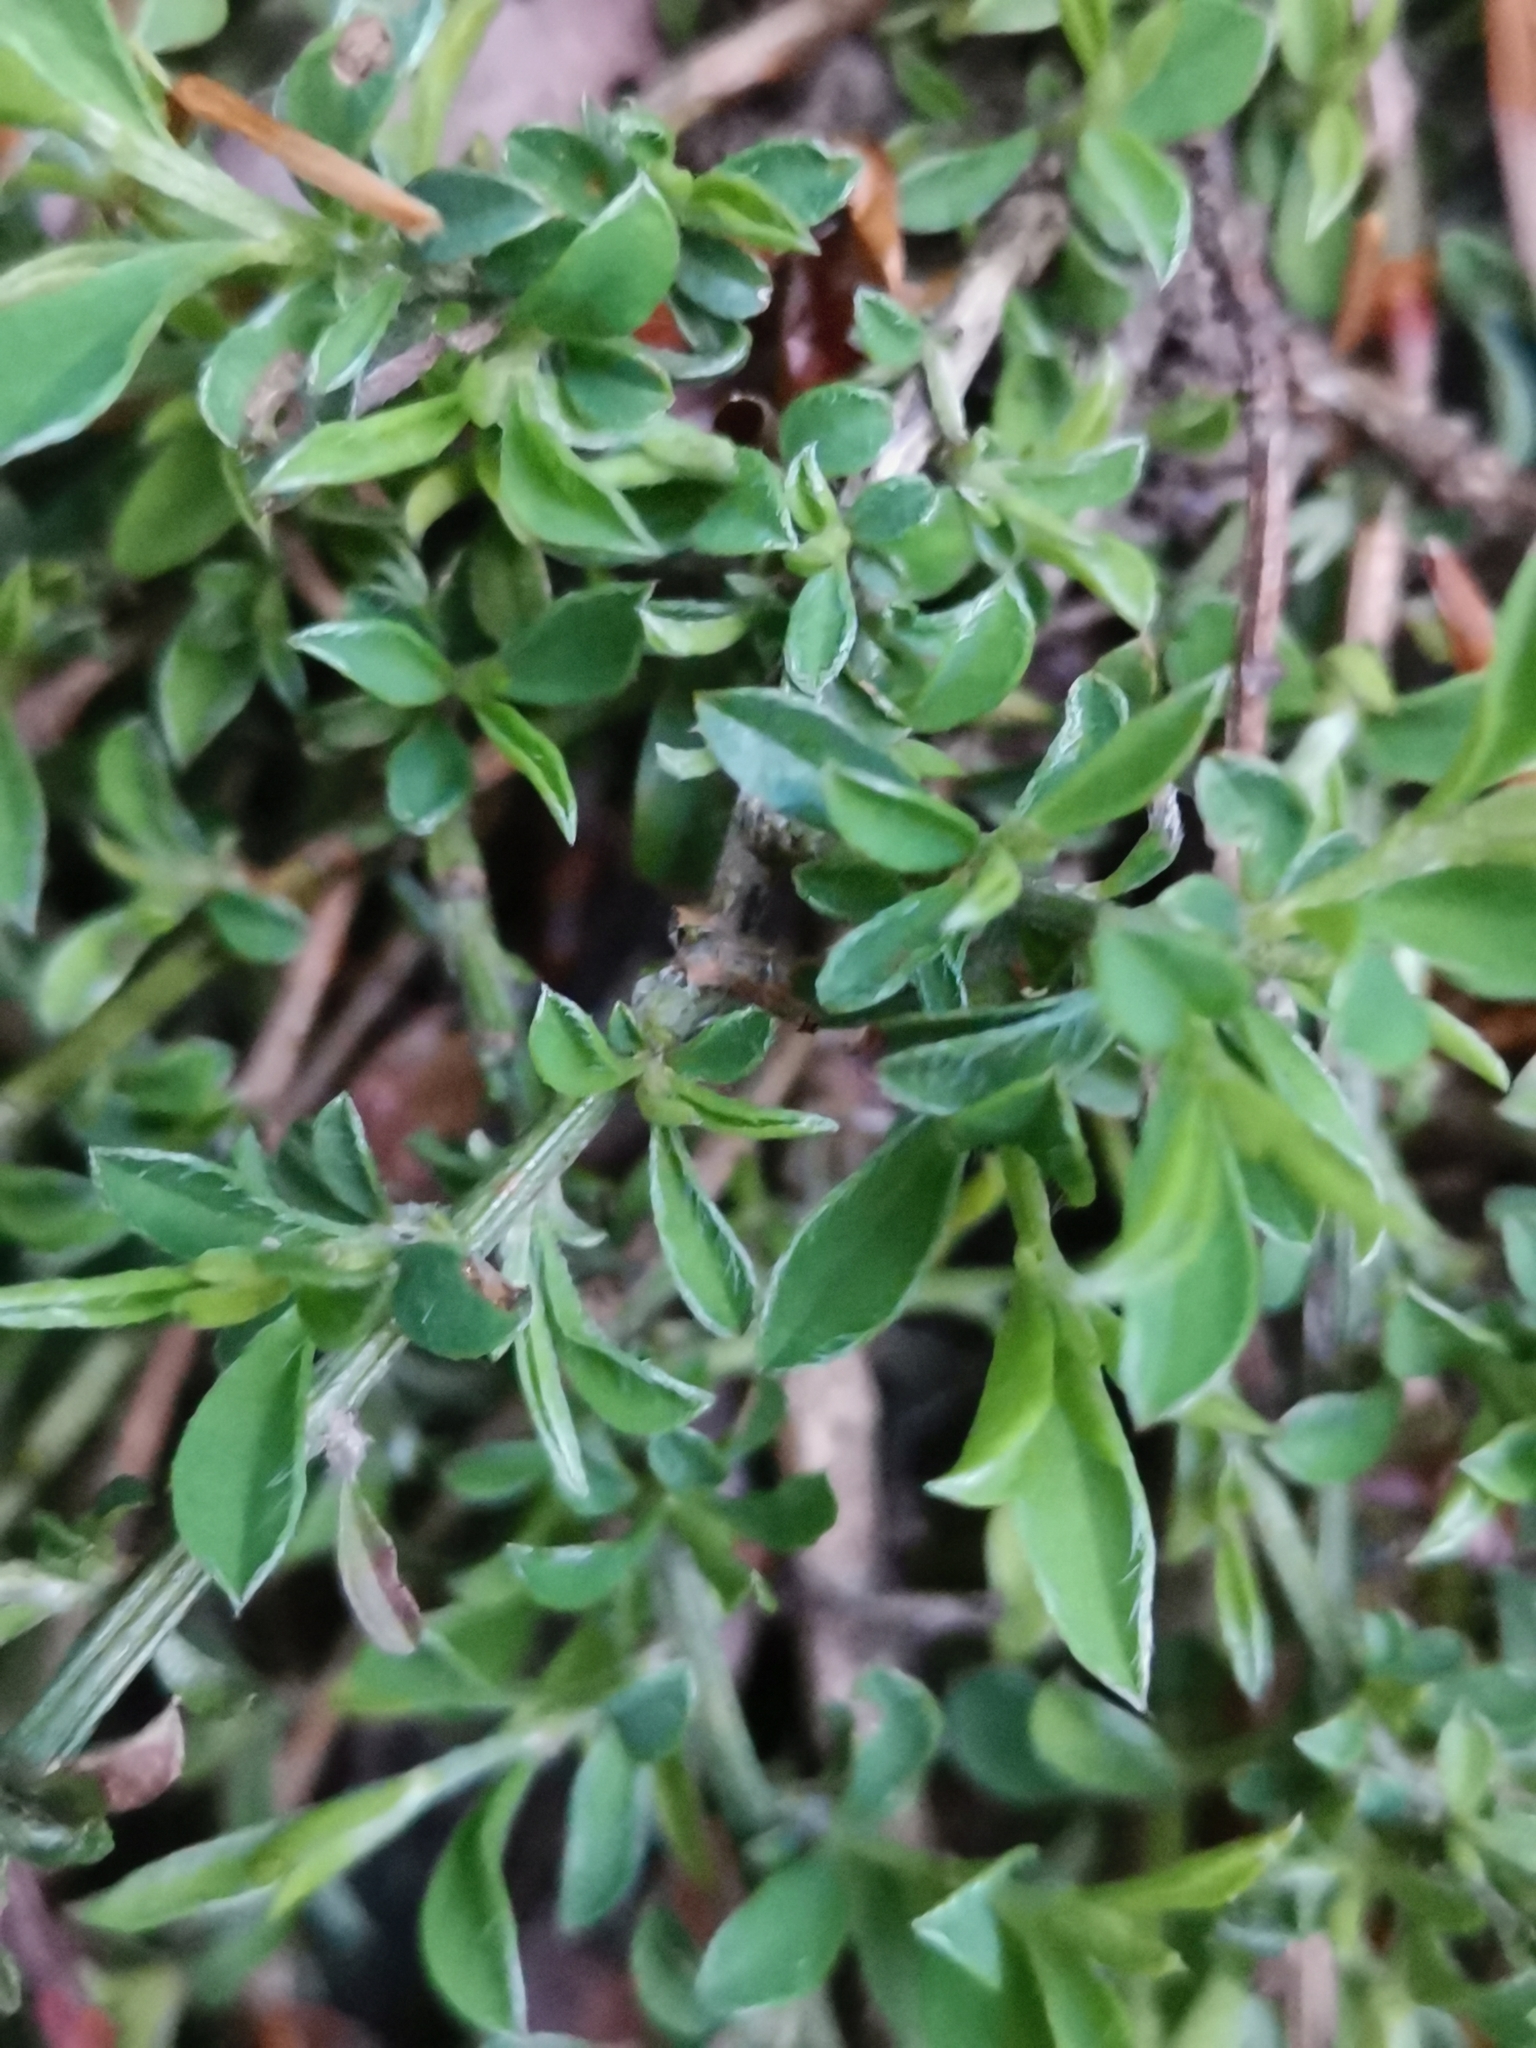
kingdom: Plantae
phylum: Tracheophyta
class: Magnoliopsida
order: Fabales
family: Fabaceae
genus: Genista
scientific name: Genista pilosa
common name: Hairy greenweed
